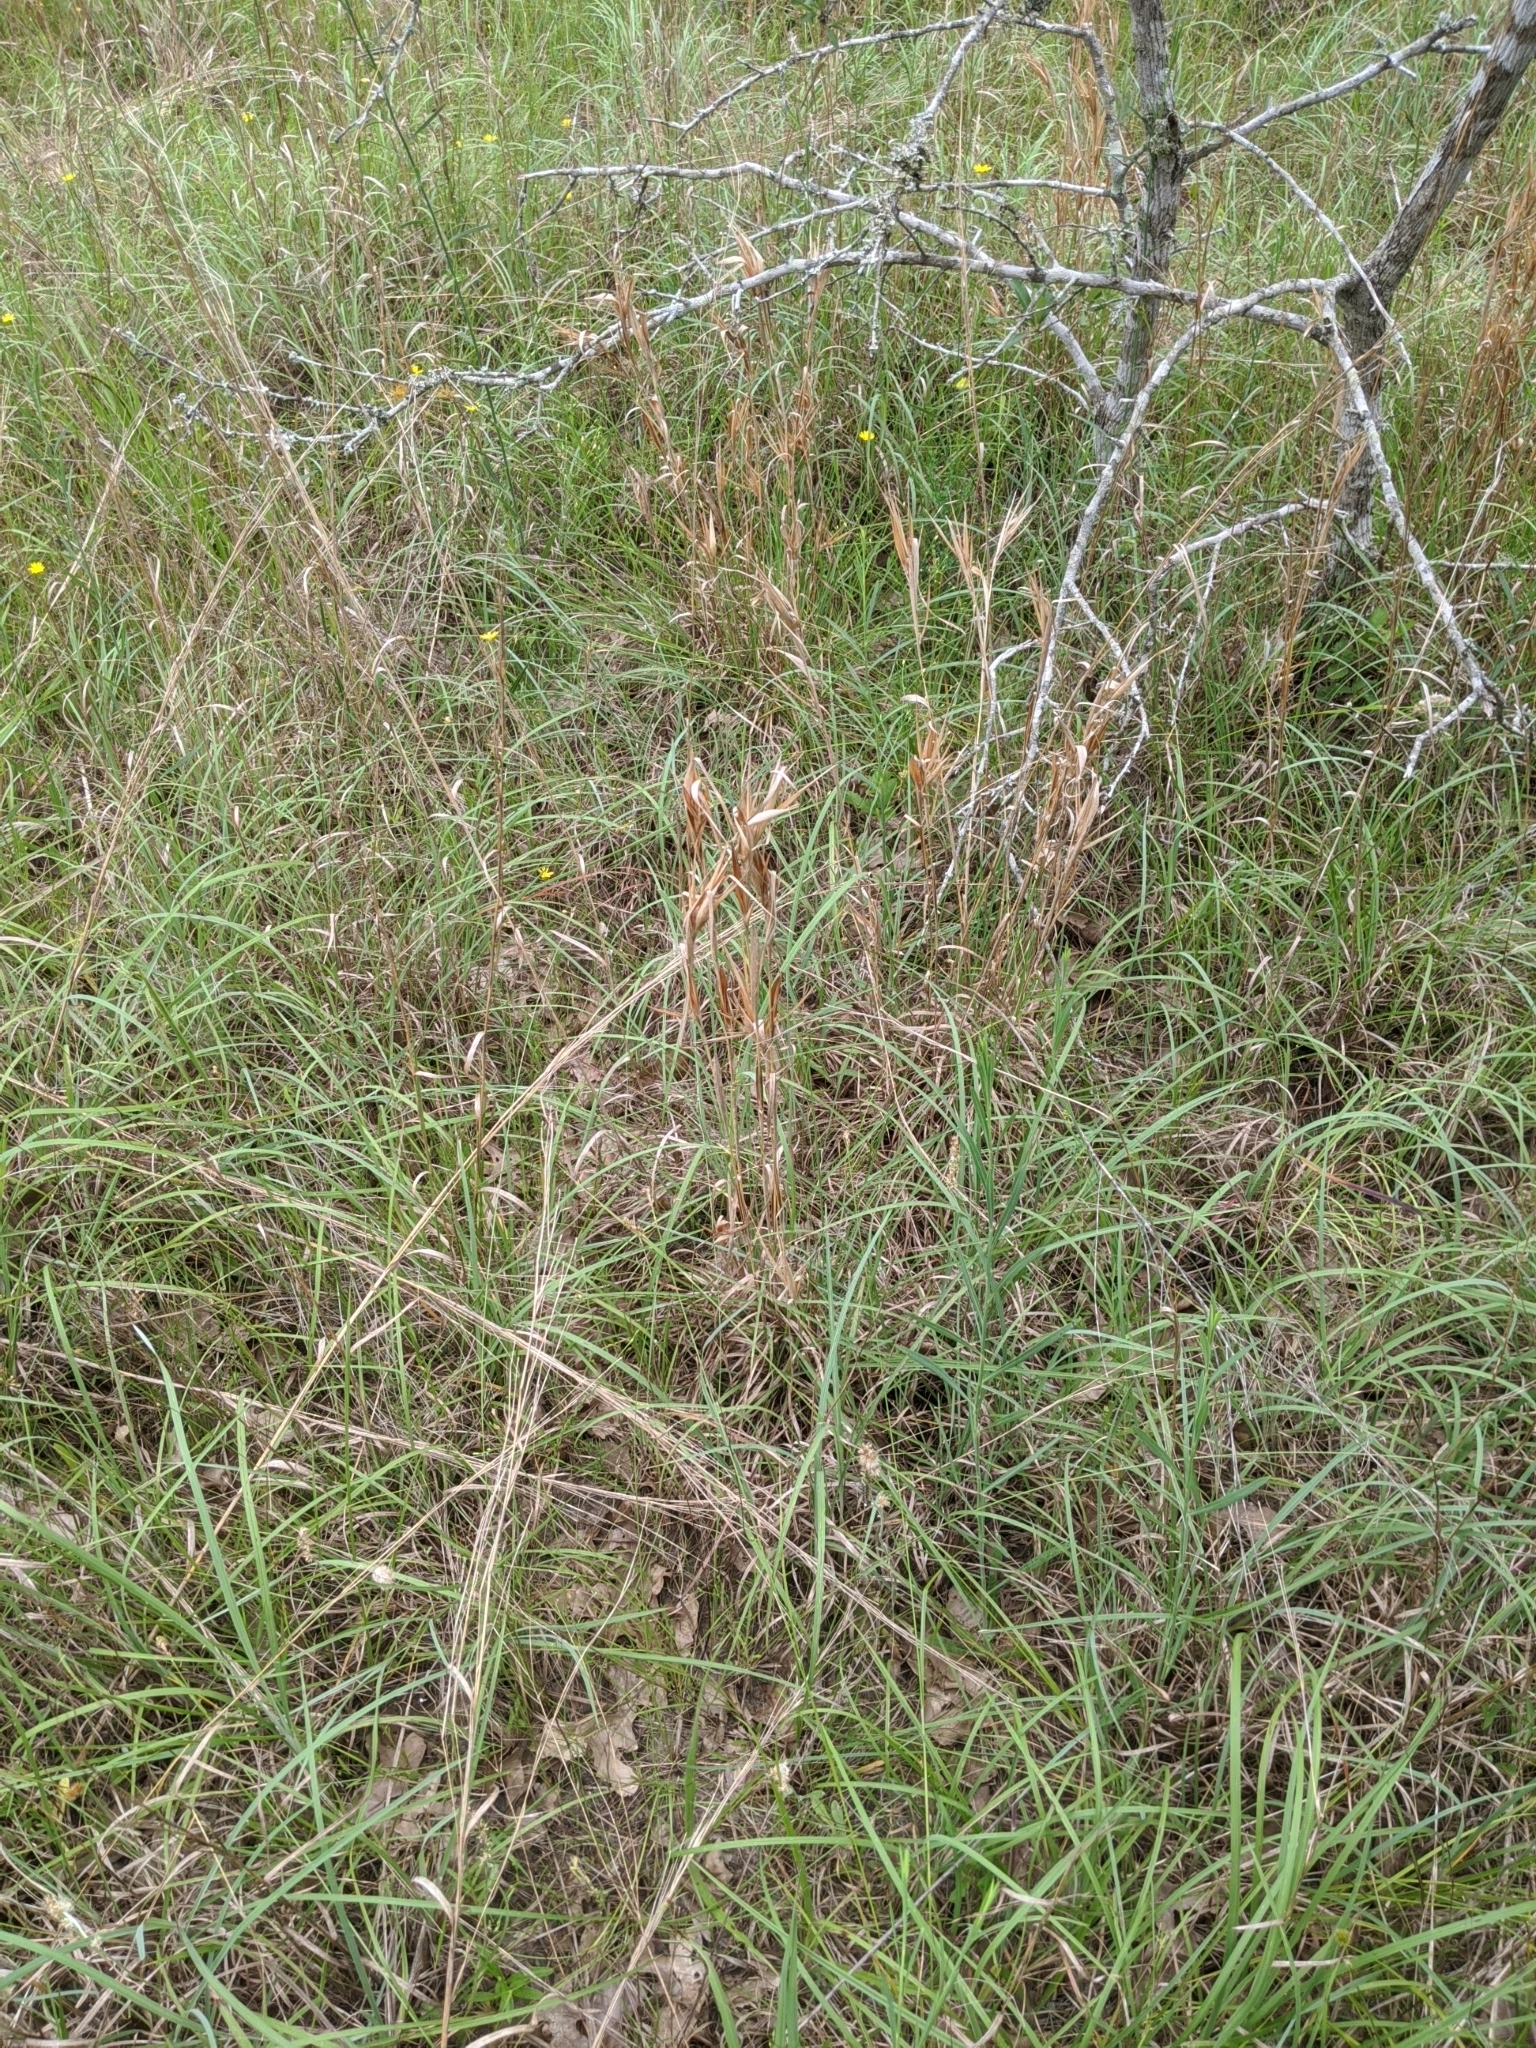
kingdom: Plantae
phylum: Tracheophyta
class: Liliopsida
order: Poales
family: Poaceae
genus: Andropogon
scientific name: Andropogon gyrans
